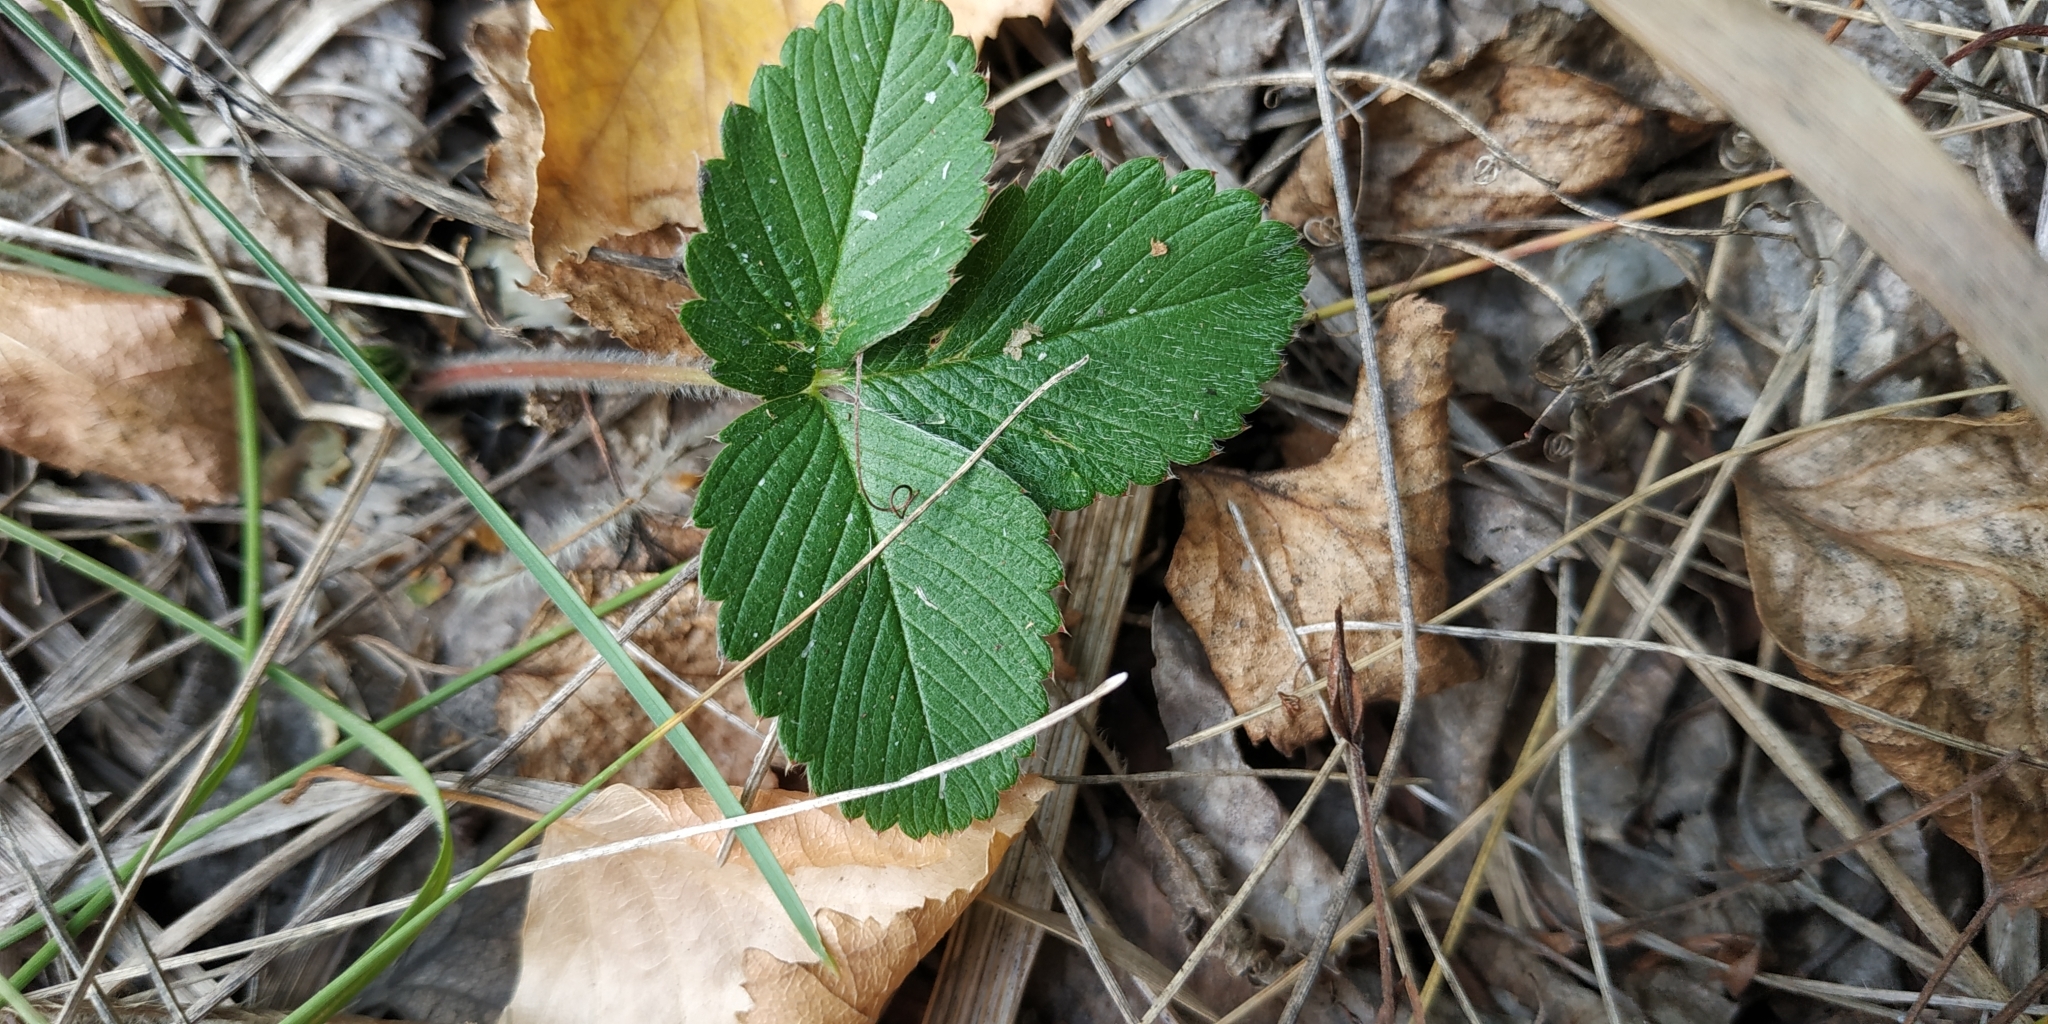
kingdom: Plantae
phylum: Tracheophyta
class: Magnoliopsida
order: Rosales
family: Rosaceae
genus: Fragaria
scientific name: Fragaria viridis
